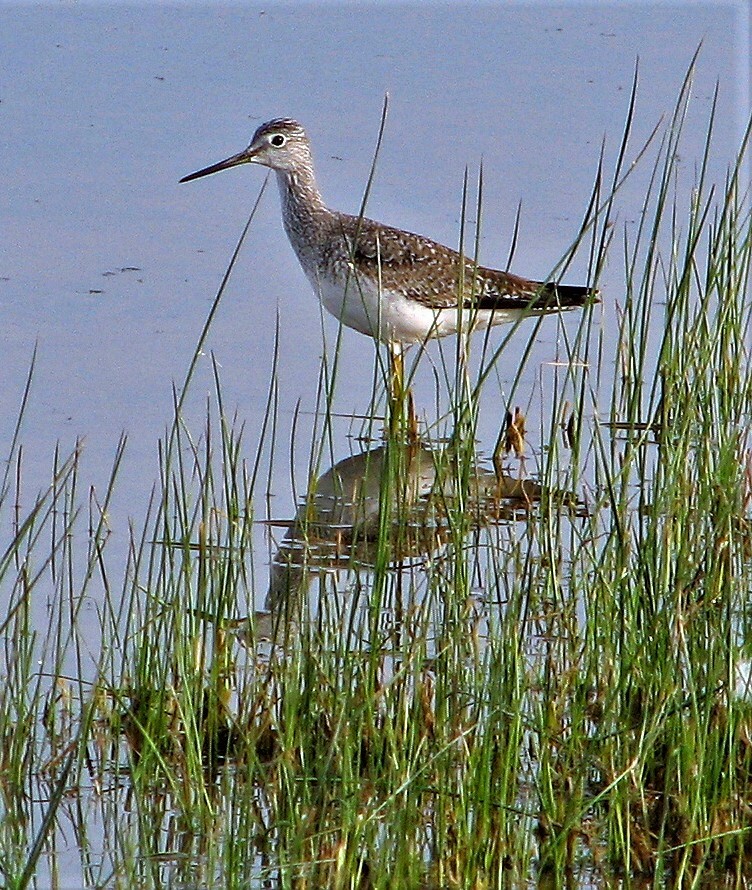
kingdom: Animalia
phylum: Chordata
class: Aves
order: Charadriiformes
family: Scolopacidae
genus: Tringa
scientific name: Tringa melanoleuca
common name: Greater yellowlegs
